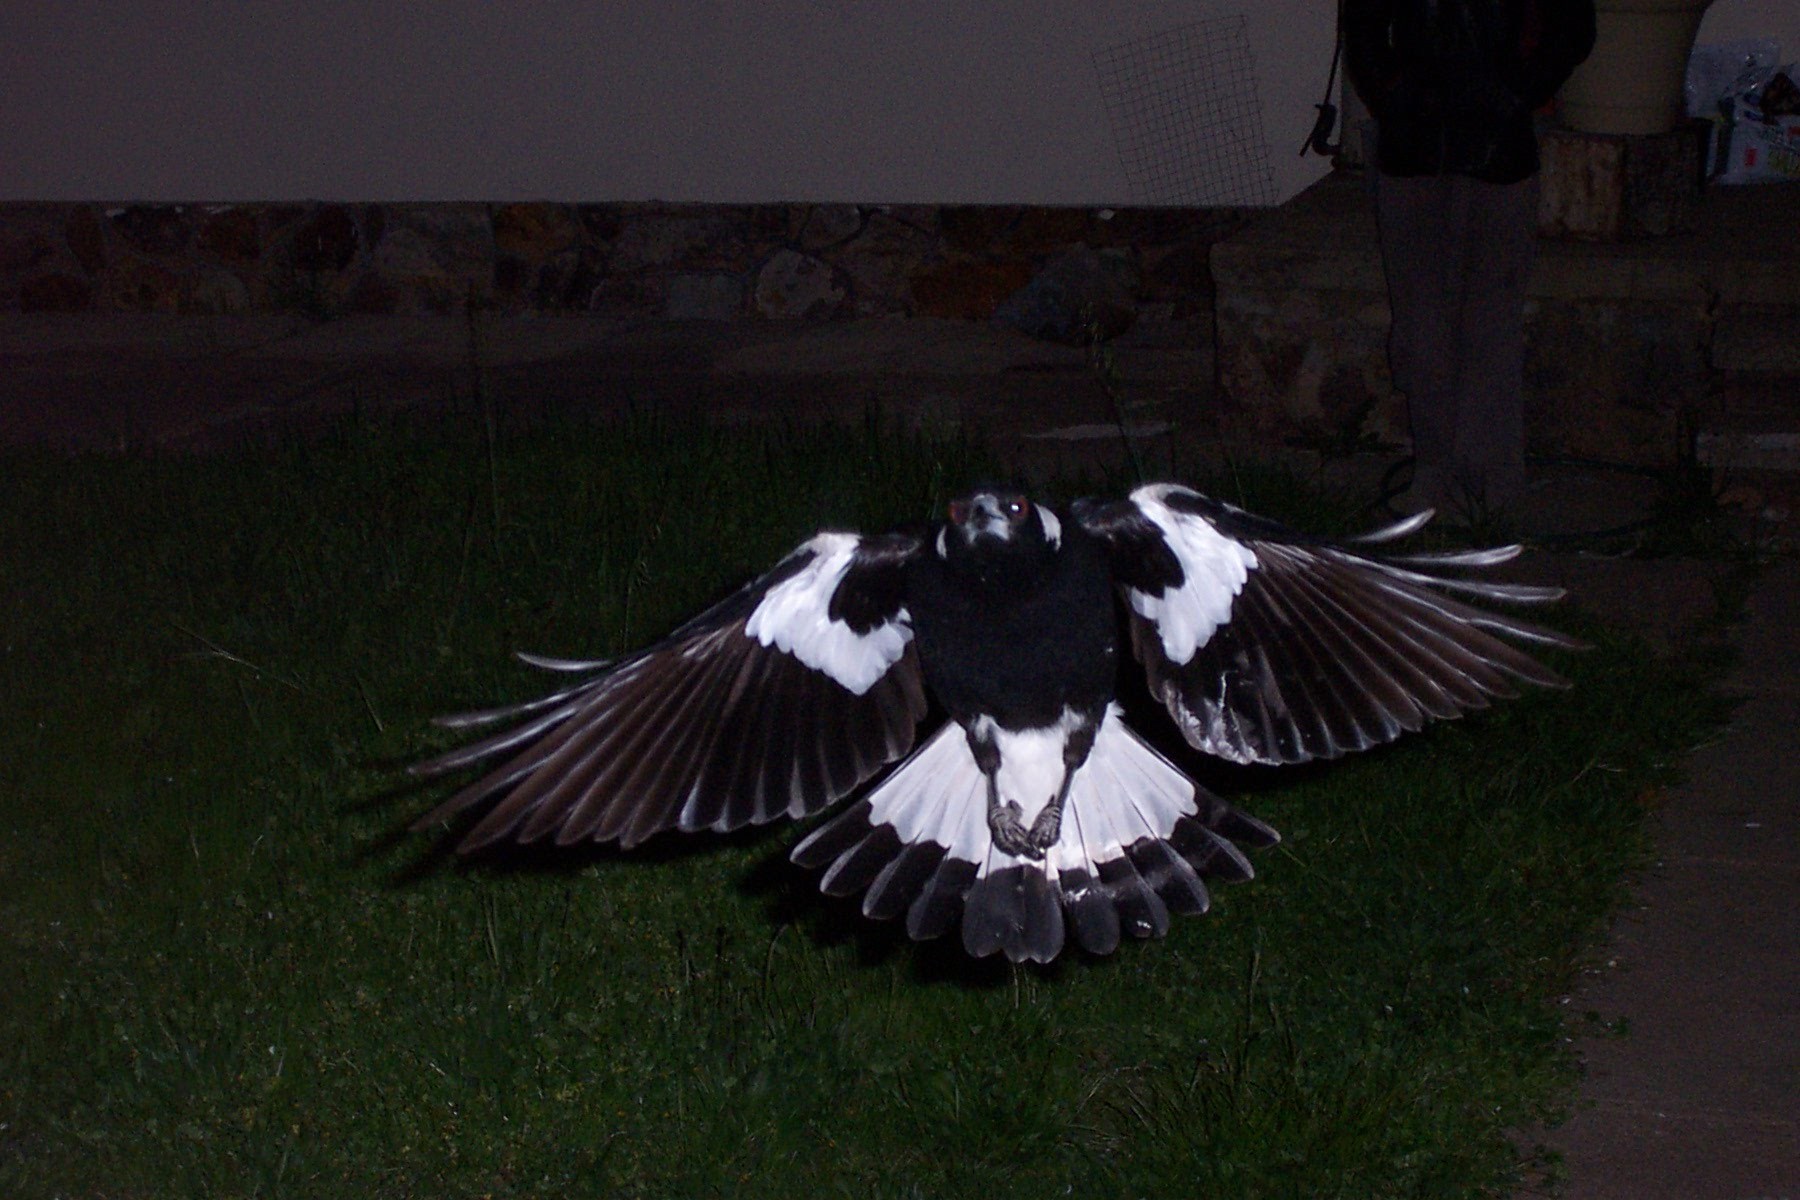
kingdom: Animalia
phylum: Chordata
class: Aves
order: Passeriformes
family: Cracticidae
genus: Gymnorhina
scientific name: Gymnorhina tibicen
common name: Australian magpie
